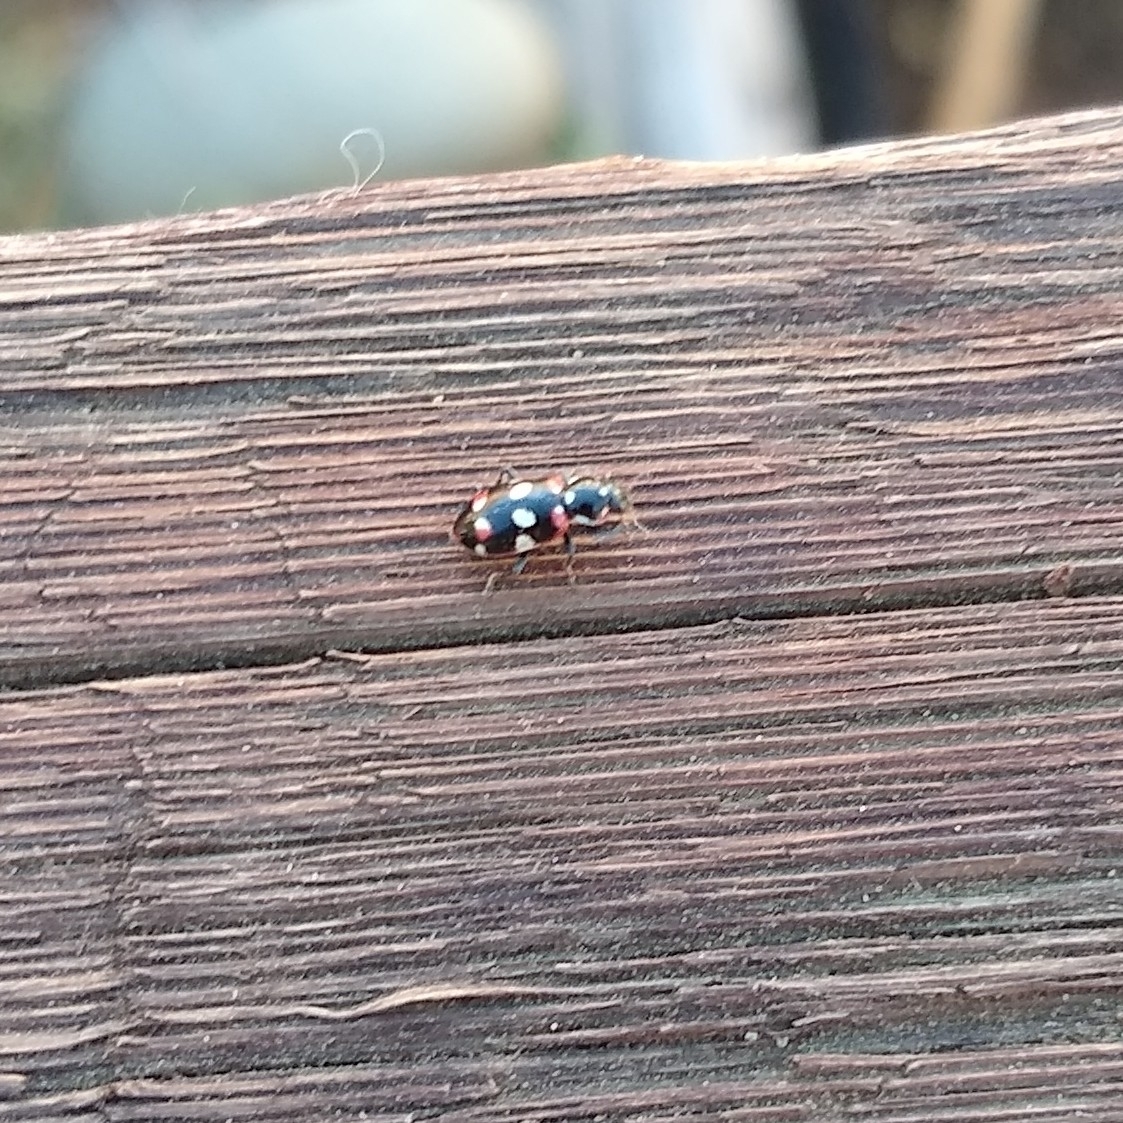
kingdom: Animalia
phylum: Arthropoda
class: Insecta
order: Coleoptera
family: Coccinellidae
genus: Eriopis
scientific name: Eriopis connexa
